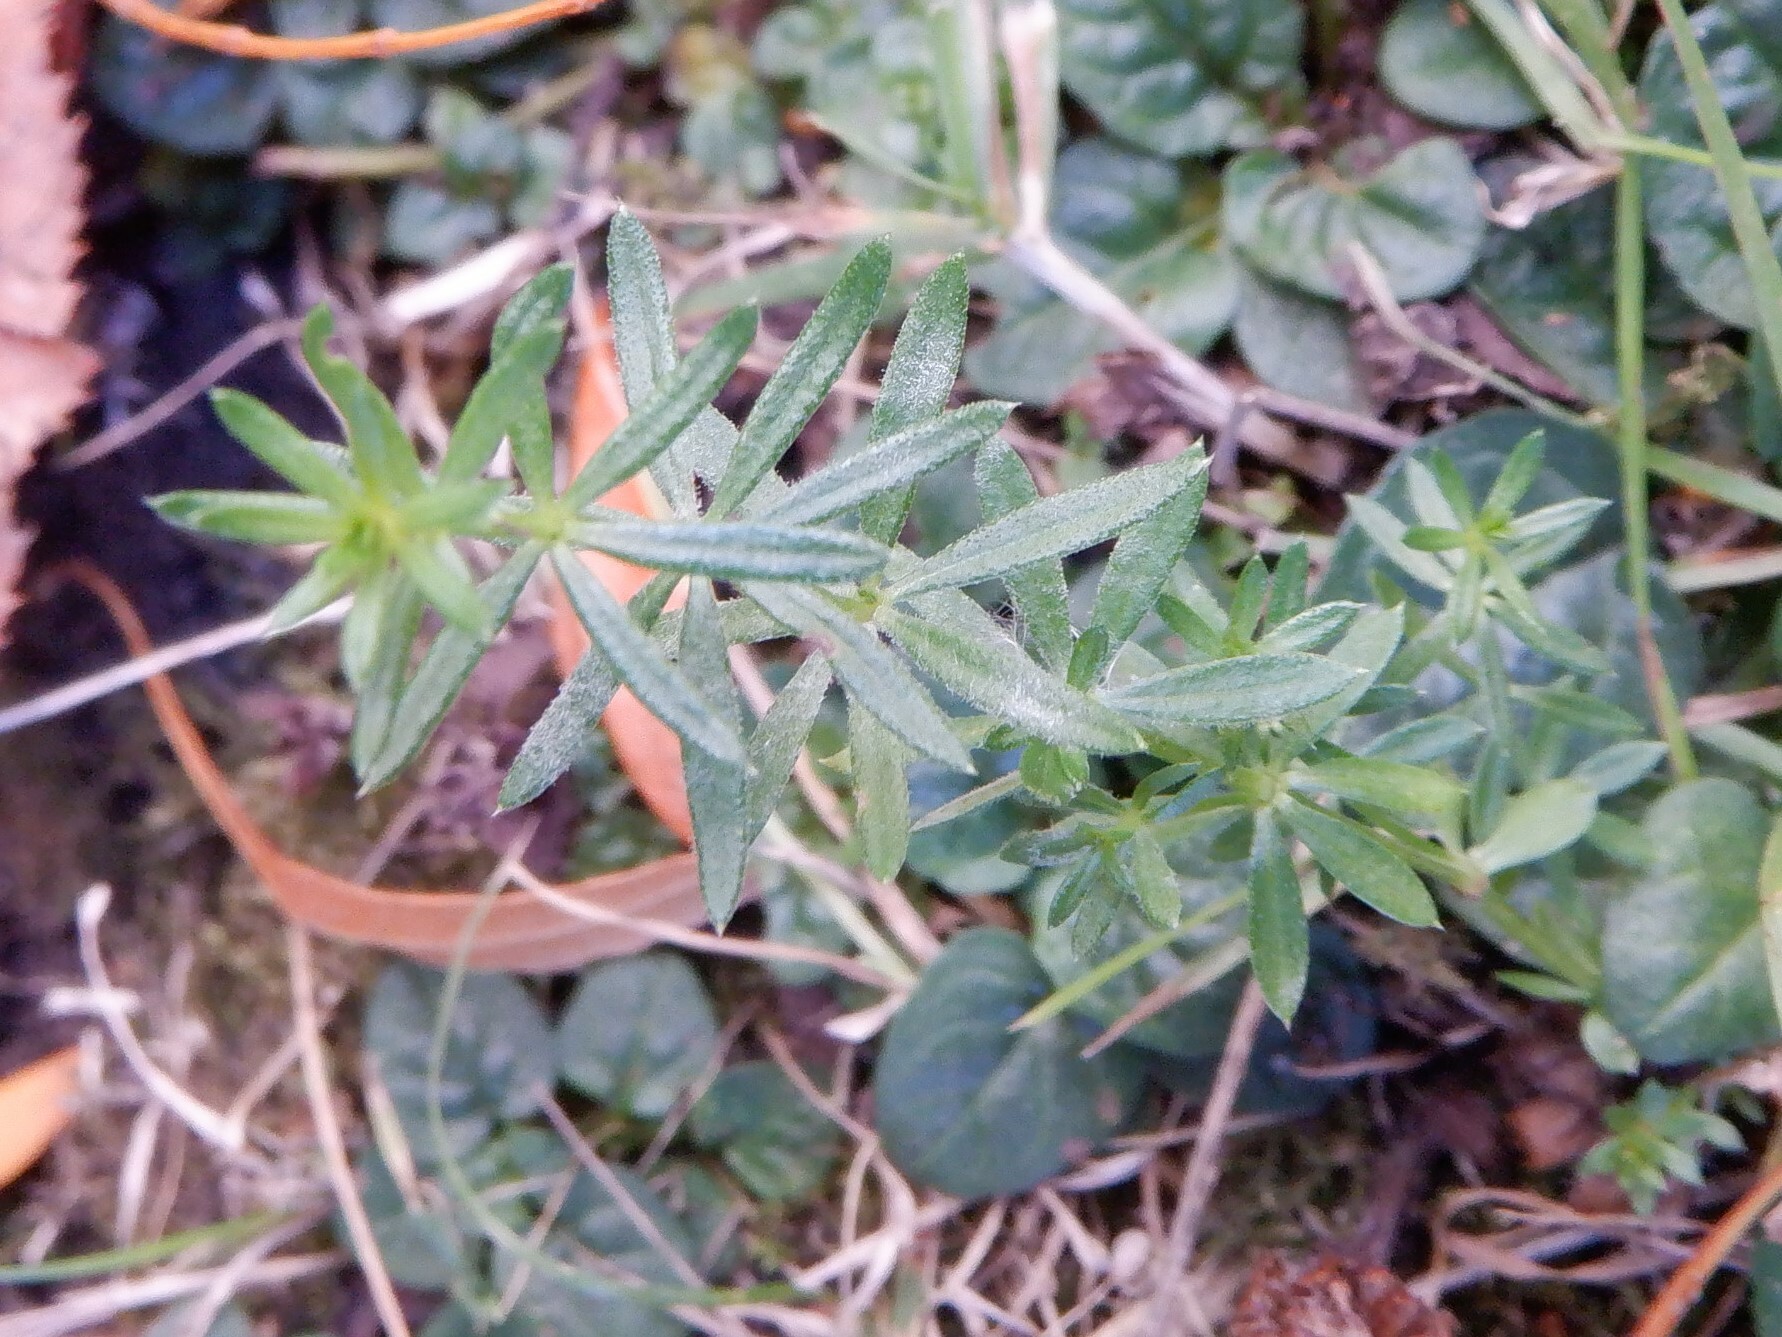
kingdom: Plantae
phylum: Tracheophyta
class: Magnoliopsida
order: Gentianales
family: Rubiaceae
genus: Galium
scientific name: Galium aparine
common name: Cleavers
